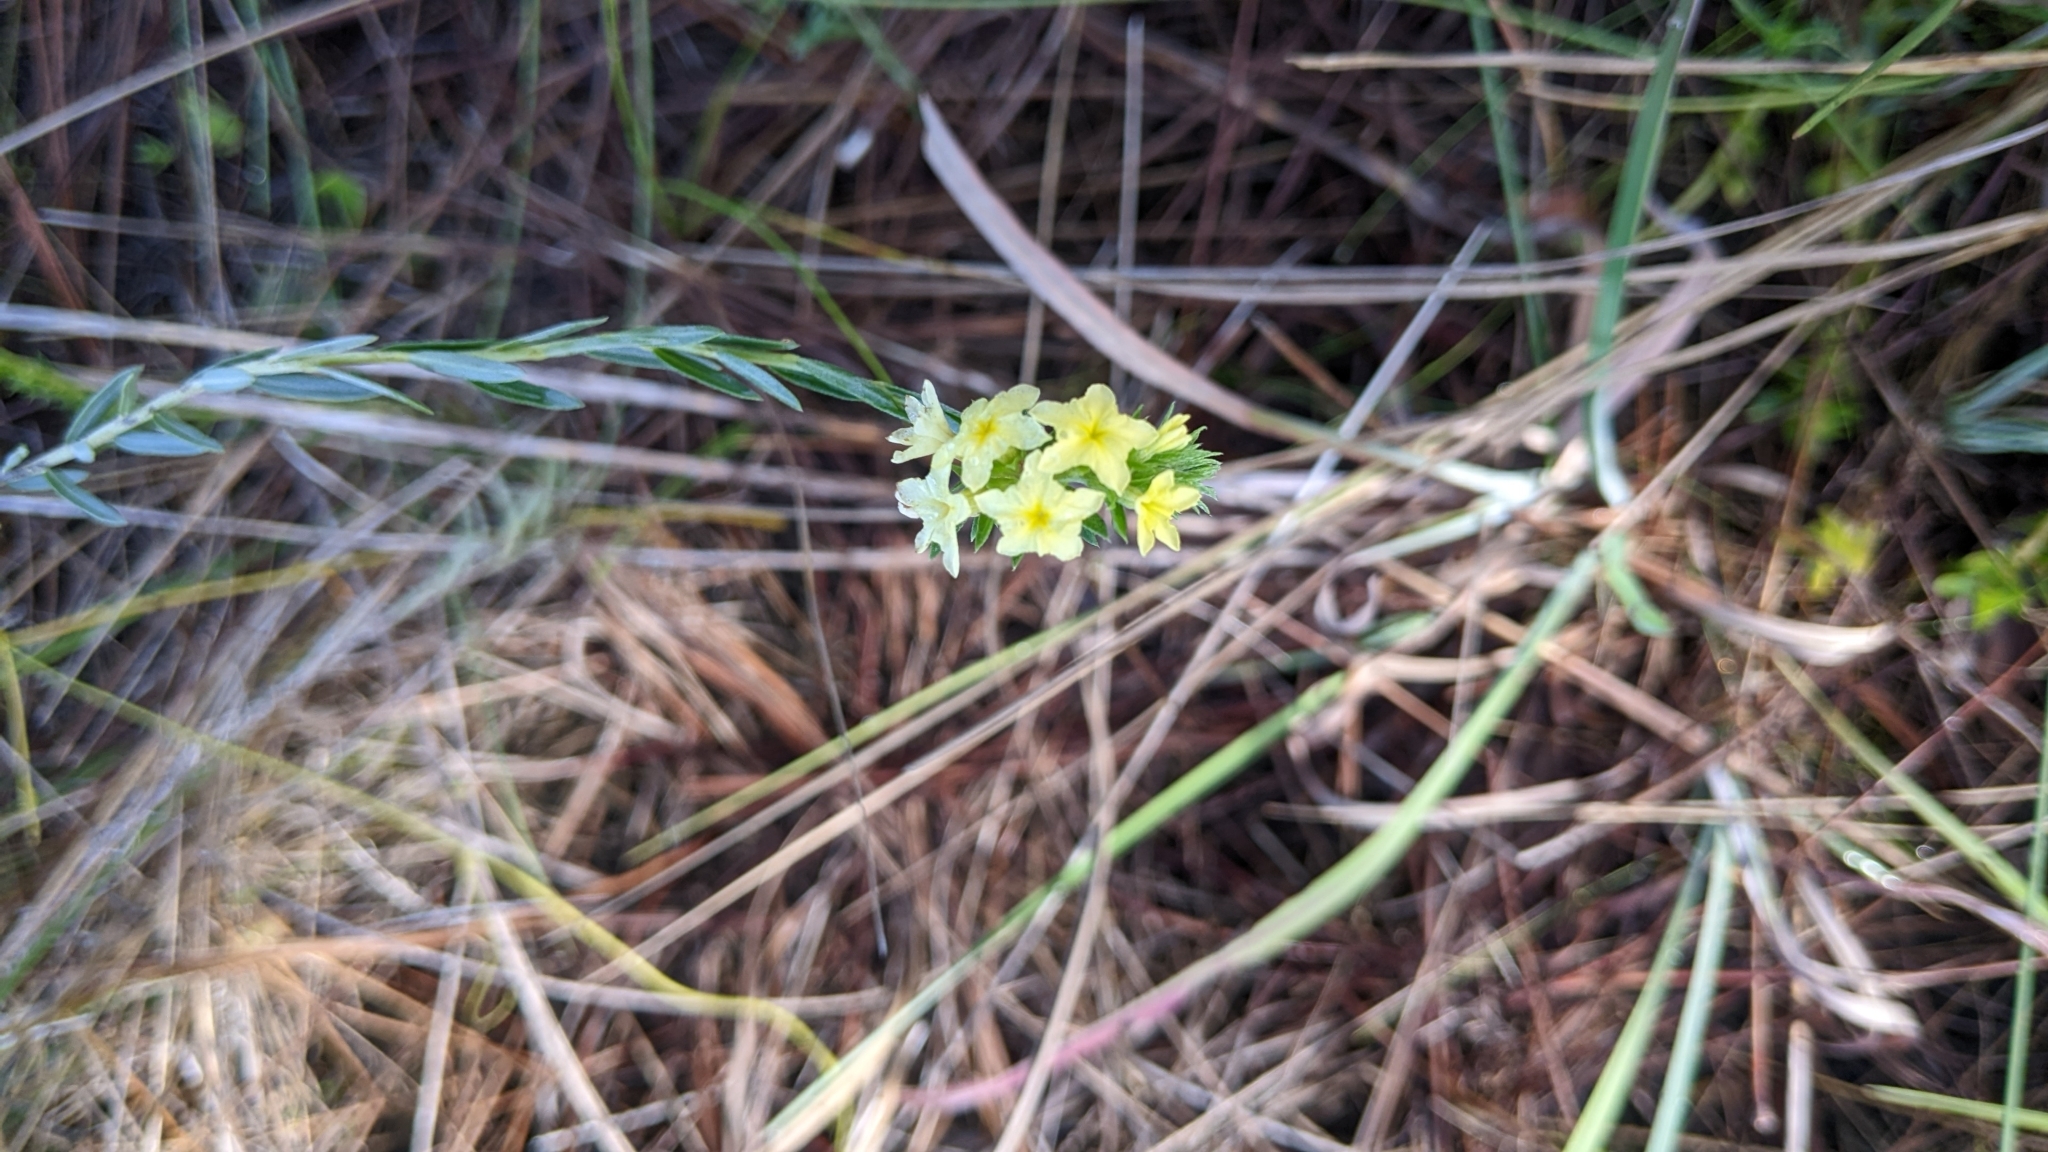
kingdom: Plantae
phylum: Tracheophyta
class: Magnoliopsida
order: Boraginales
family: Heliotropiaceae
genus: Euploca
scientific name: Euploca polyphylla
